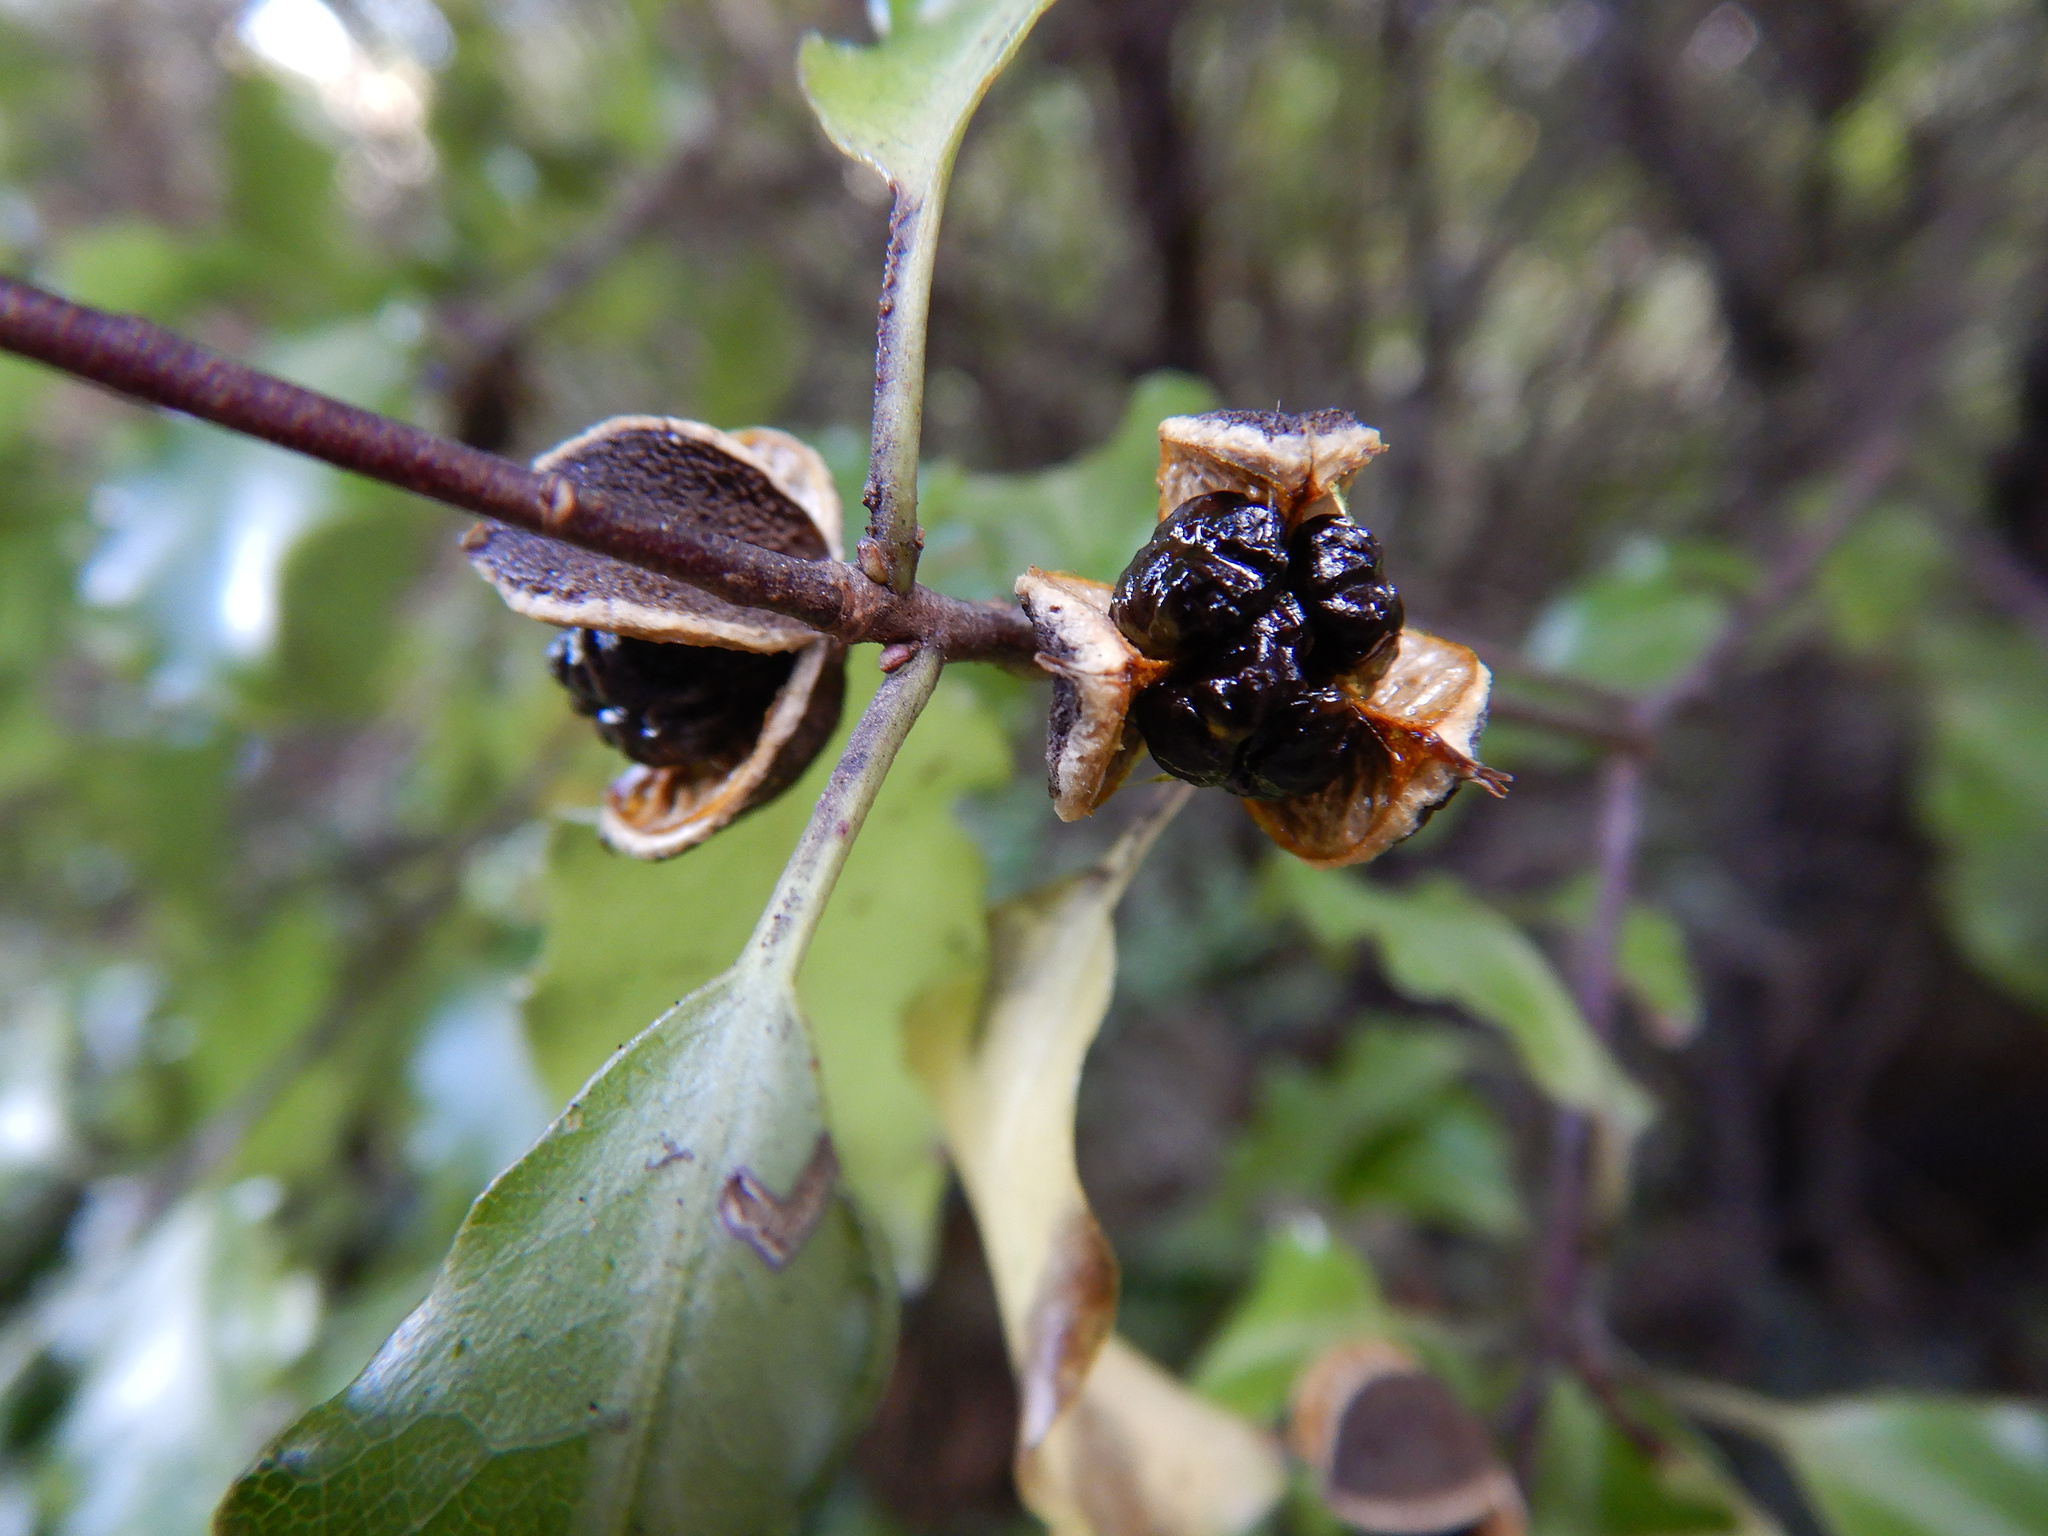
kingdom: Plantae
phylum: Tracheophyta
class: Magnoliopsida
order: Apiales
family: Pittosporaceae
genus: Pittosporum
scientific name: Pittosporum tenuifolium
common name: Kohuhu
